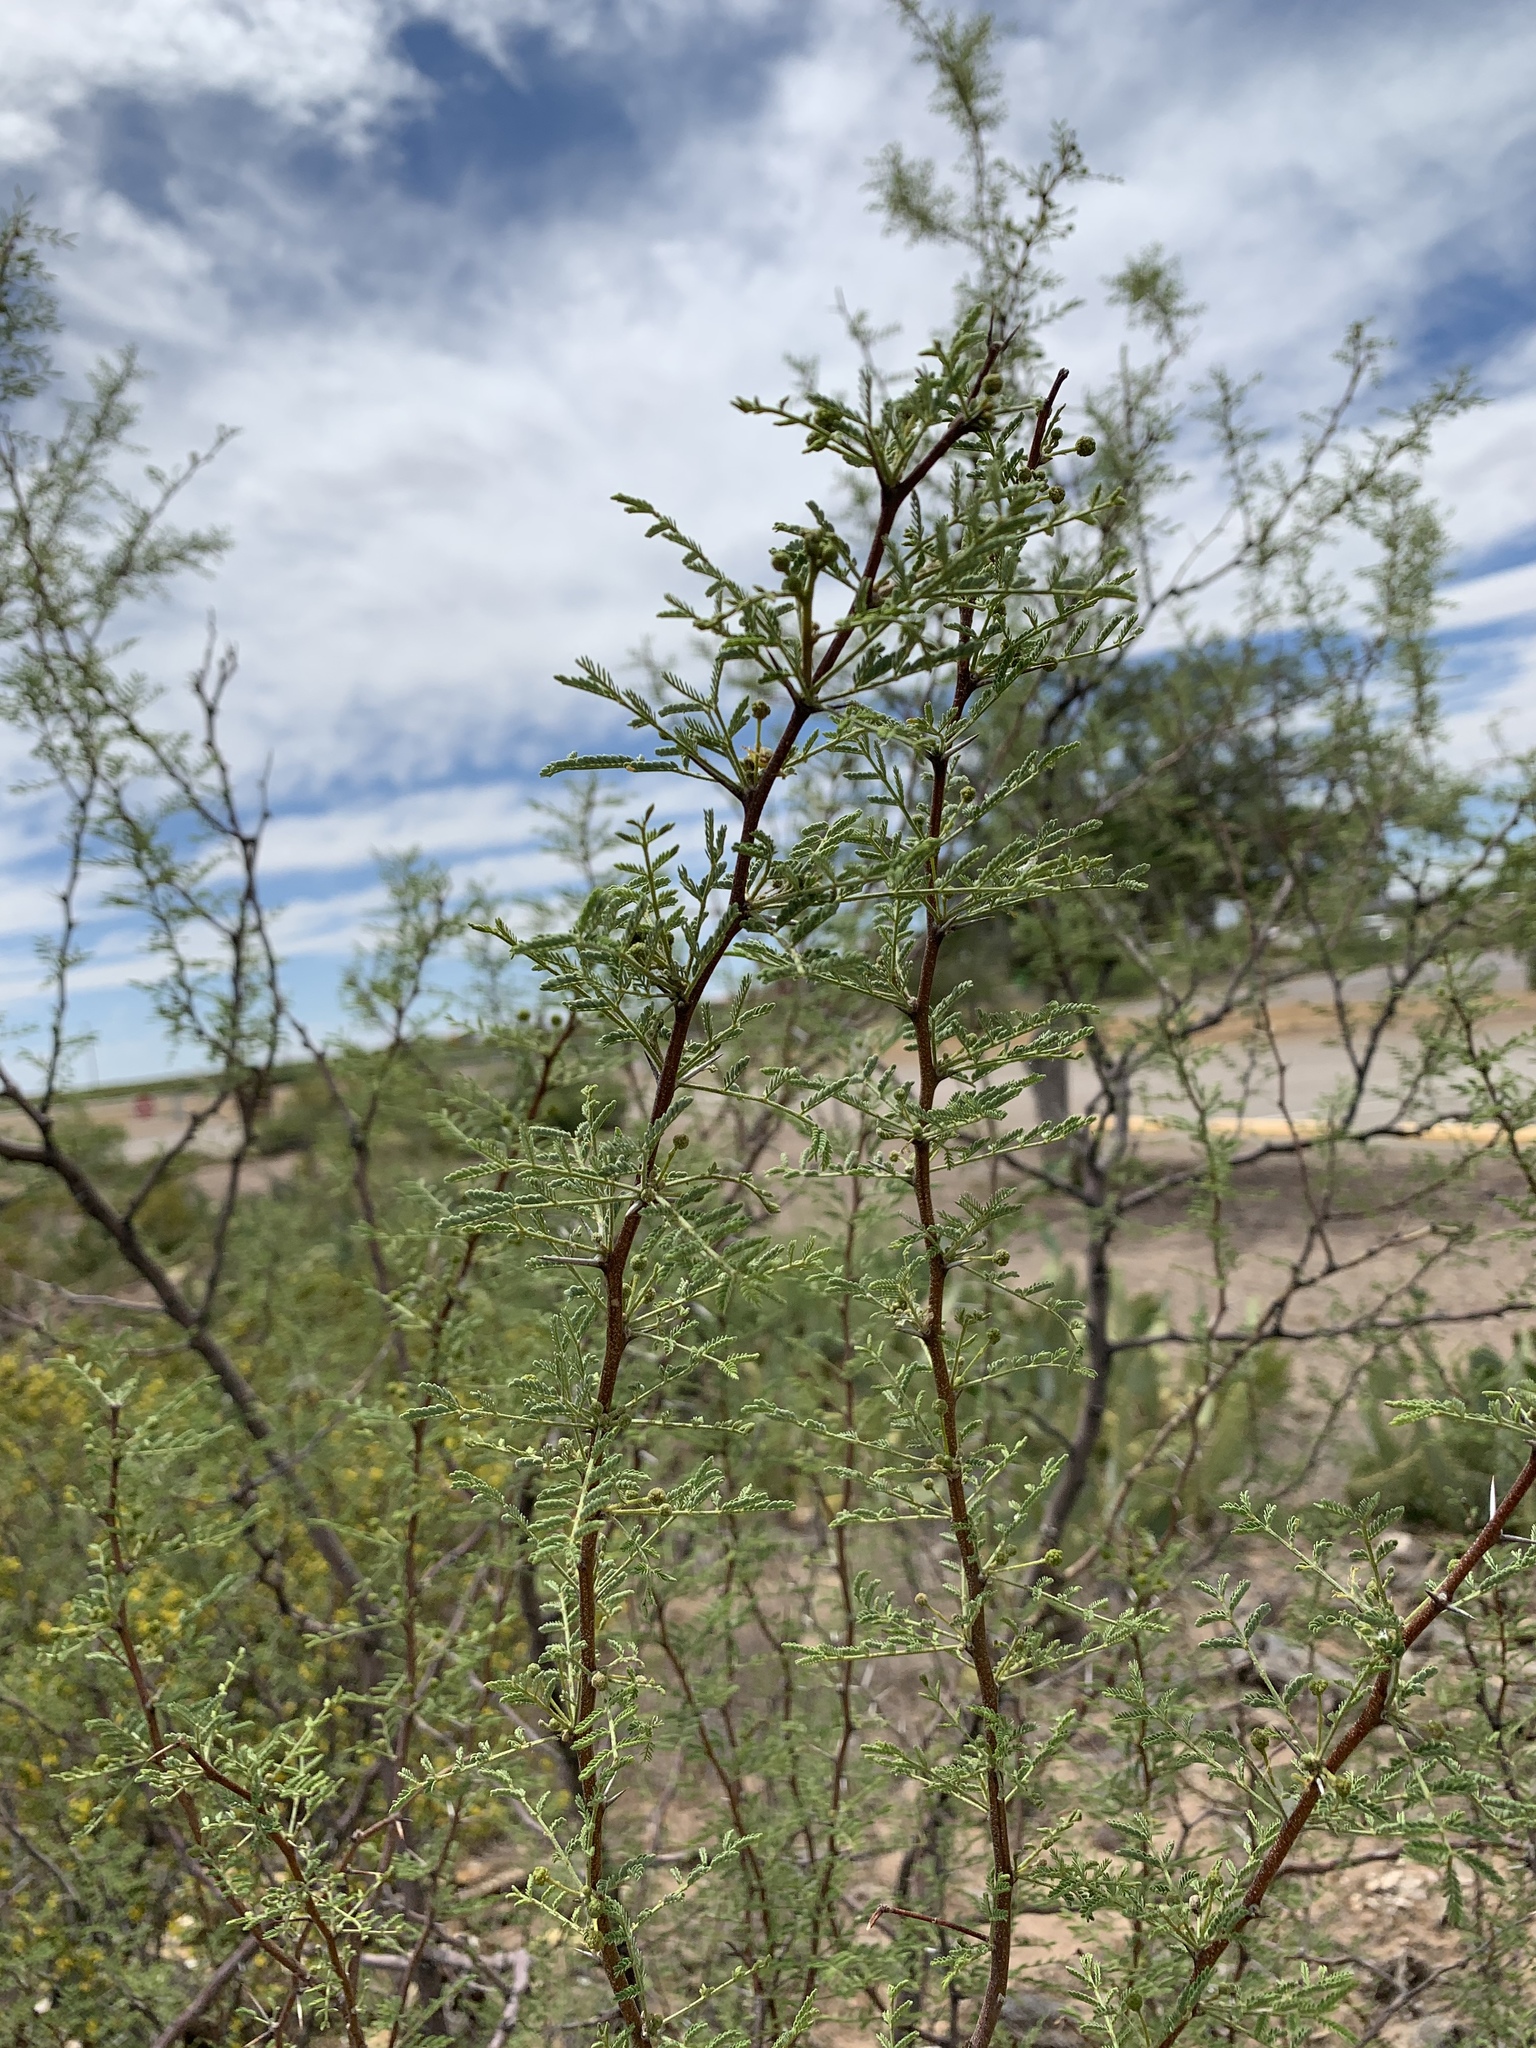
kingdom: Plantae
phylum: Tracheophyta
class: Magnoliopsida
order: Fabales
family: Fabaceae
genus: Vachellia
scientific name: Vachellia constricta
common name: Mescat acacia
